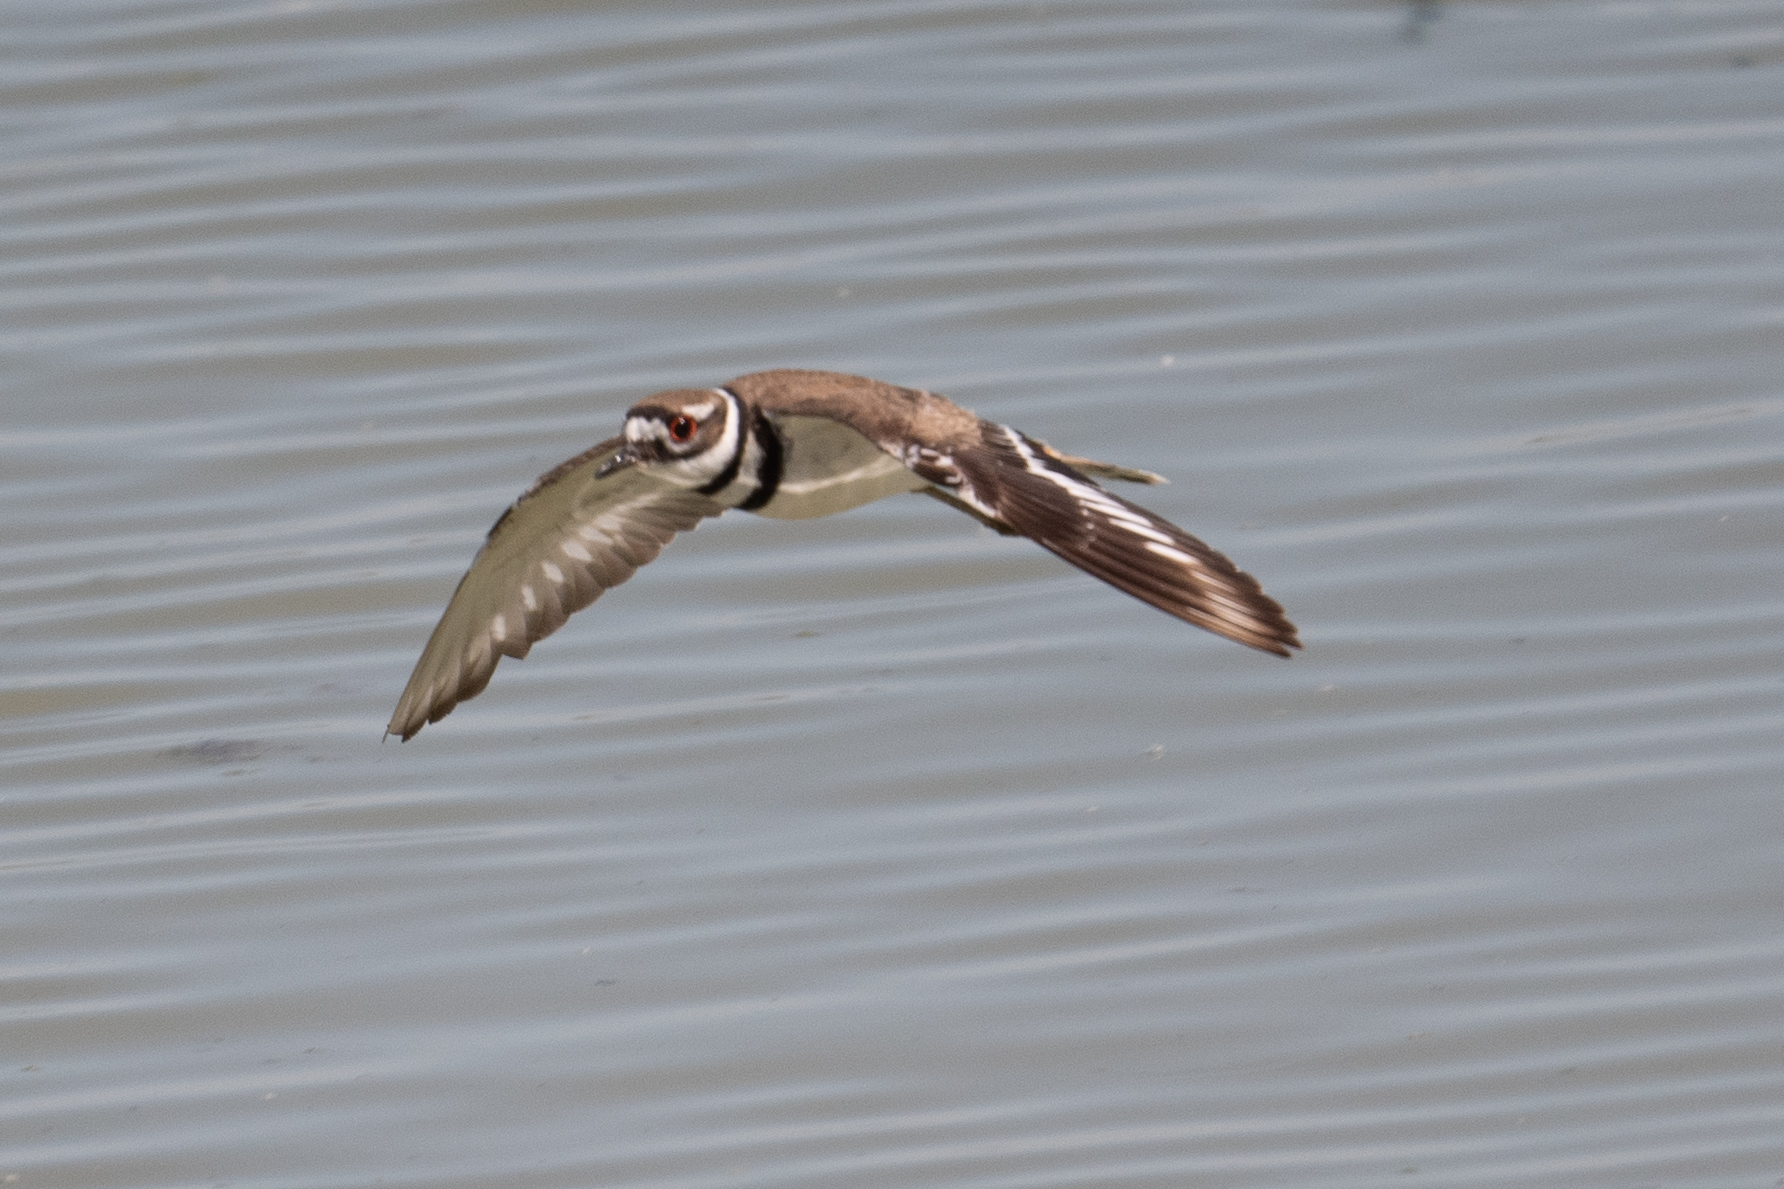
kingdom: Animalia
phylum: Chordata
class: Aves
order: Charadriiformes
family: Charadriidae
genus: Charadrius
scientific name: Charadrius vociferus
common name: Killdeer
